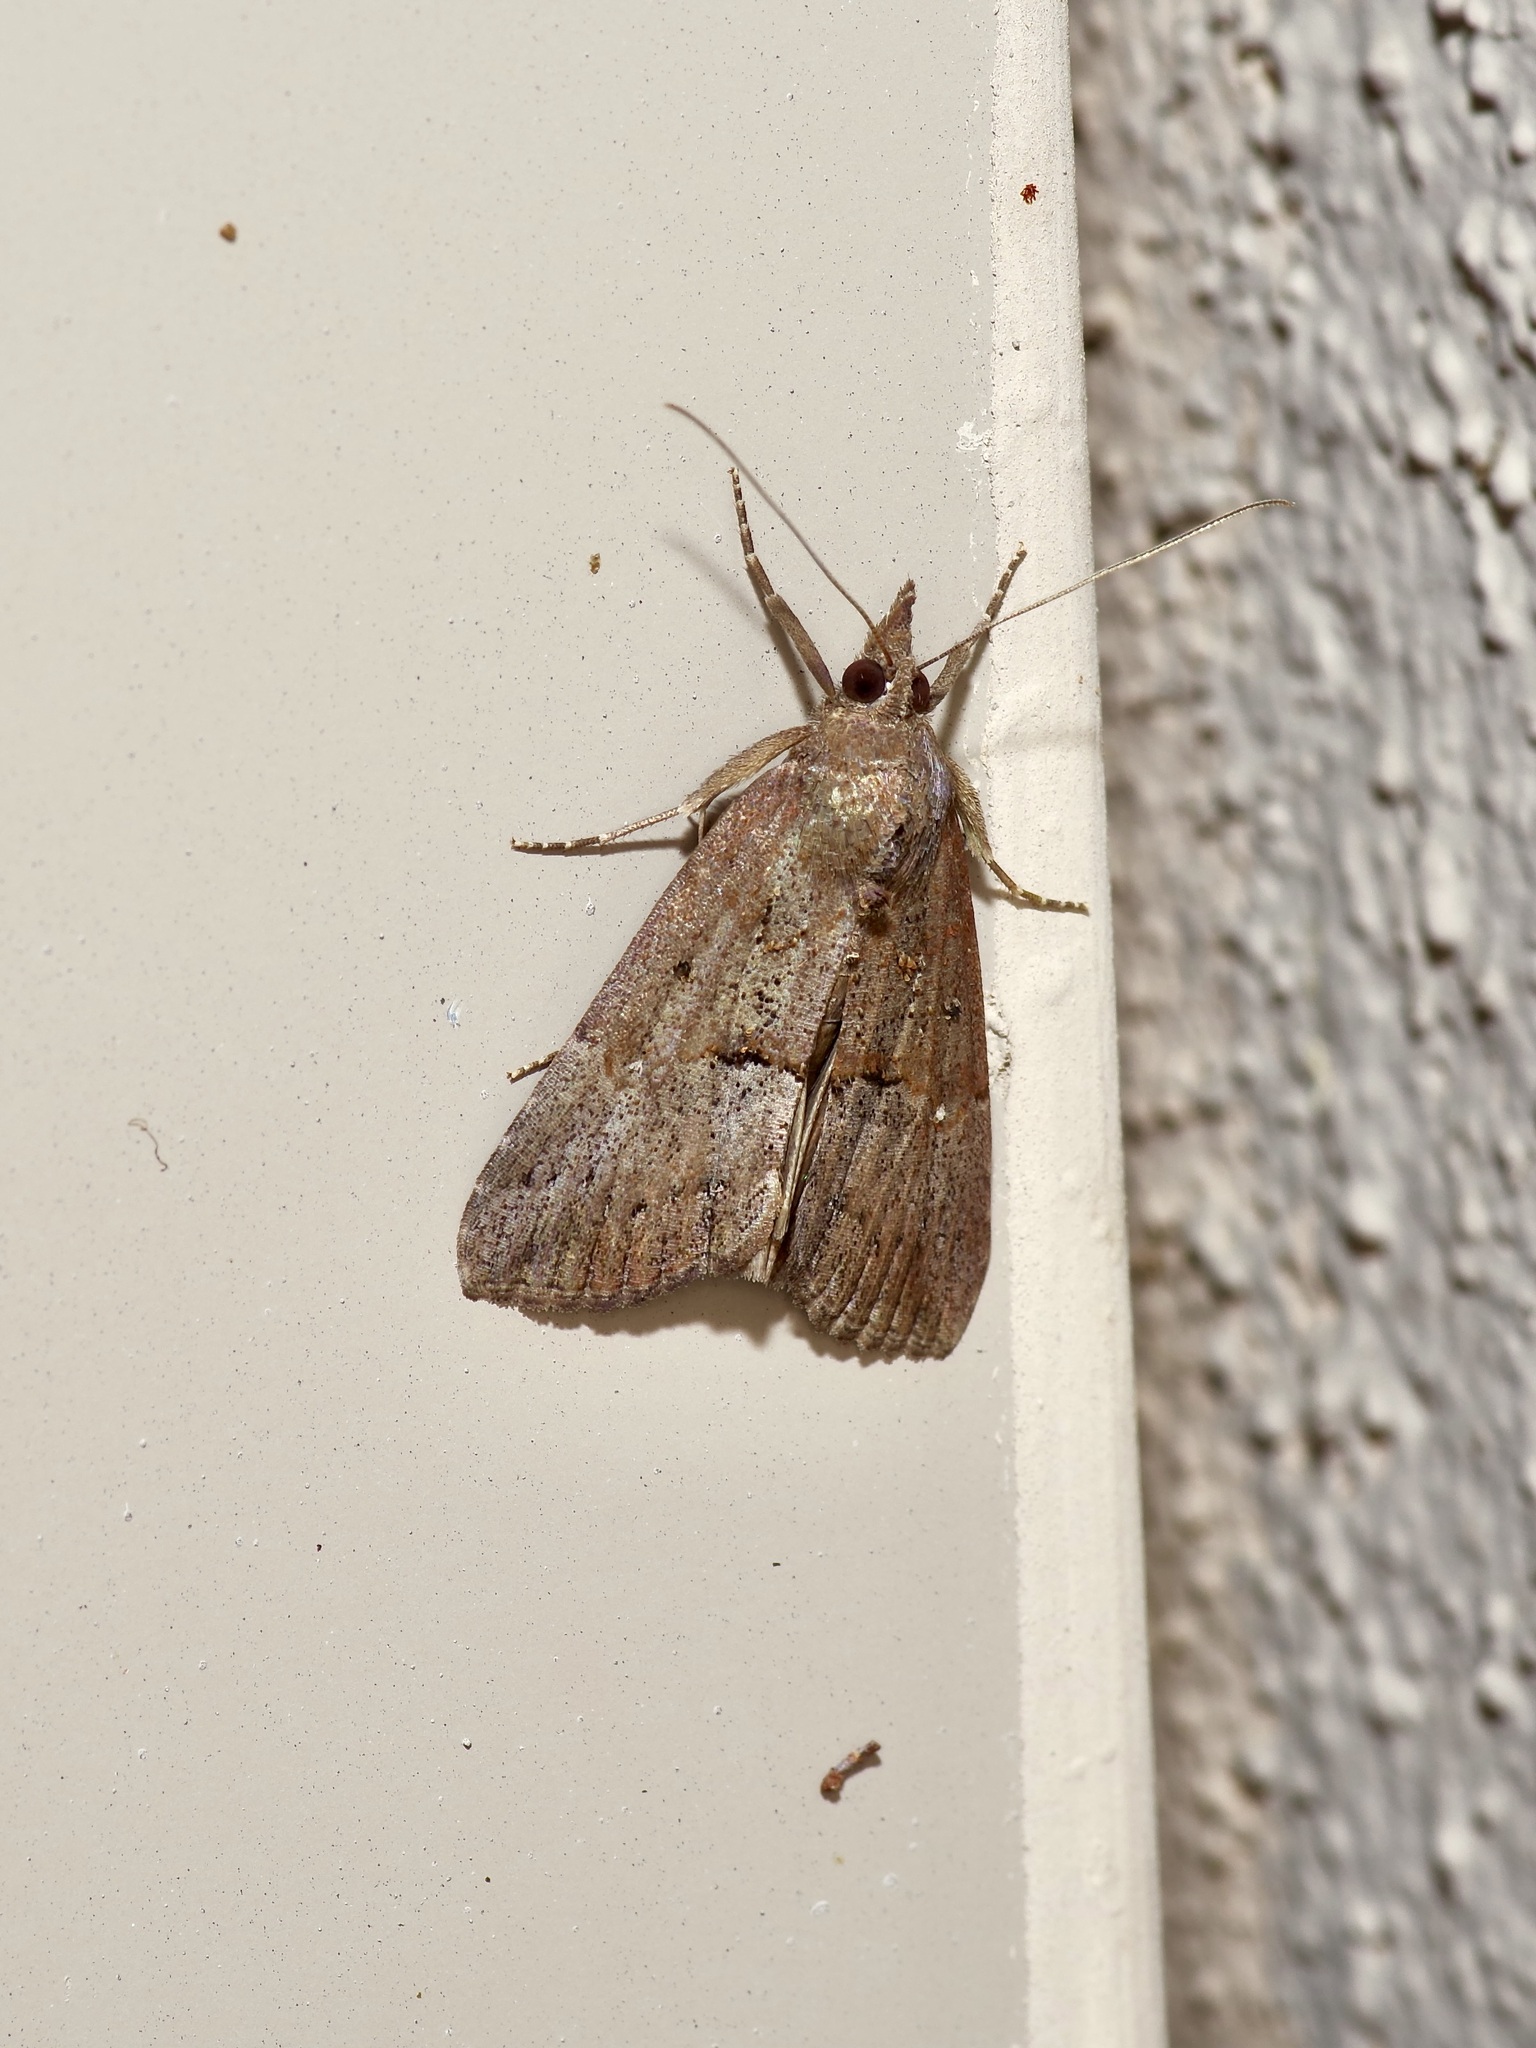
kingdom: Animalia
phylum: Arthropoda
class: Insecta
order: Lepidoptera
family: Erebidae
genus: Hypena
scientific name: Hypena scabra
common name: Green cloverworm
